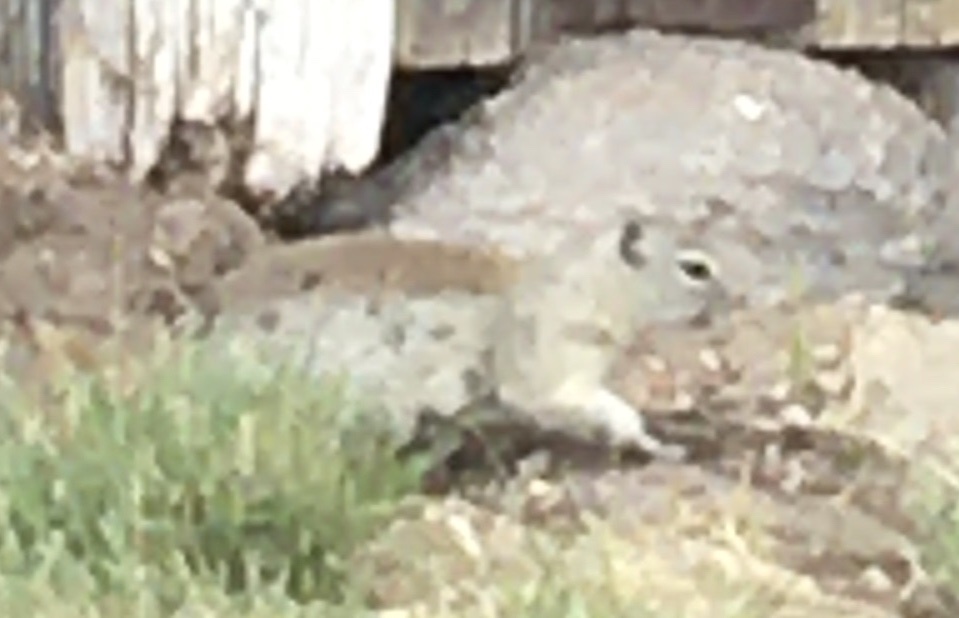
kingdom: Animalia
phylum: Chordata
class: Mammalia
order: Rodentia
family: Sciuridae
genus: Urocitellus
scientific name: Urocitellus beldingi
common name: Belding's ground squirrel
